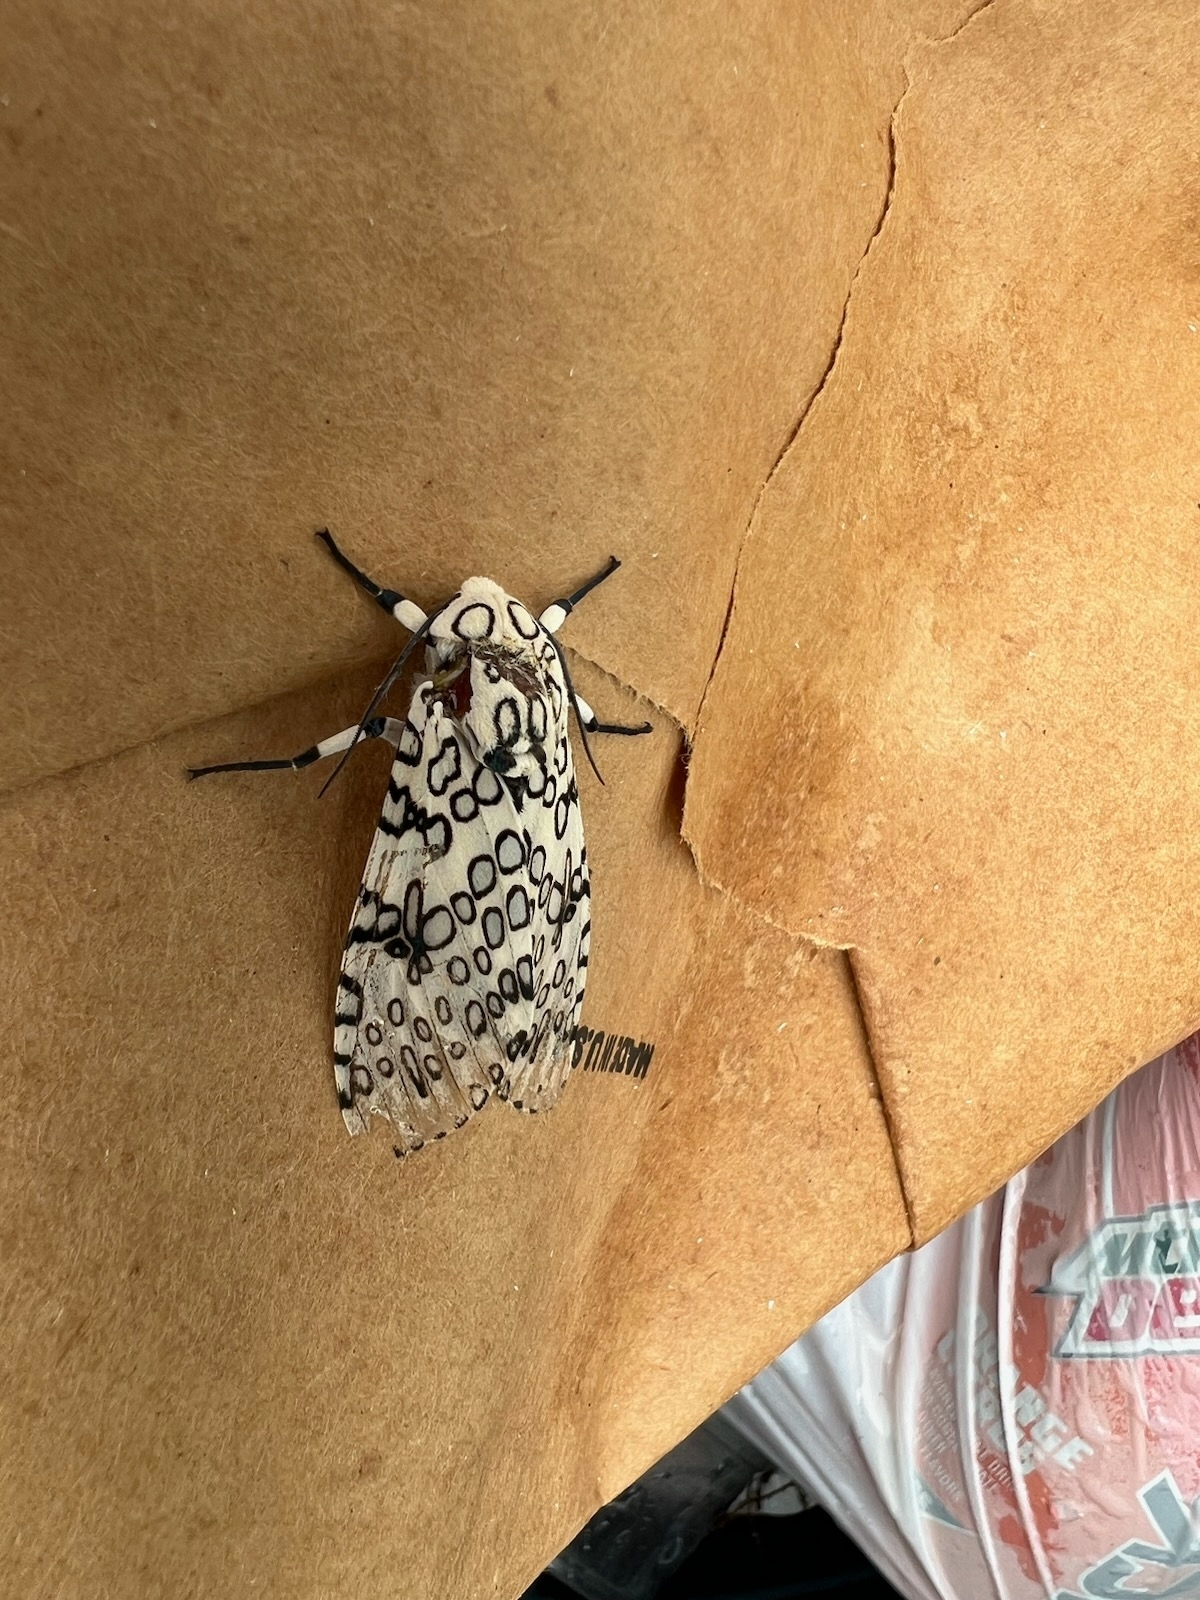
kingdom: Animalia
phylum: Arthropoda
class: Insecta
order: Lepidoptera
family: Erebidae
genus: Hypercompe
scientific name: Hypercompe scribonia
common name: Giant leopard moth
